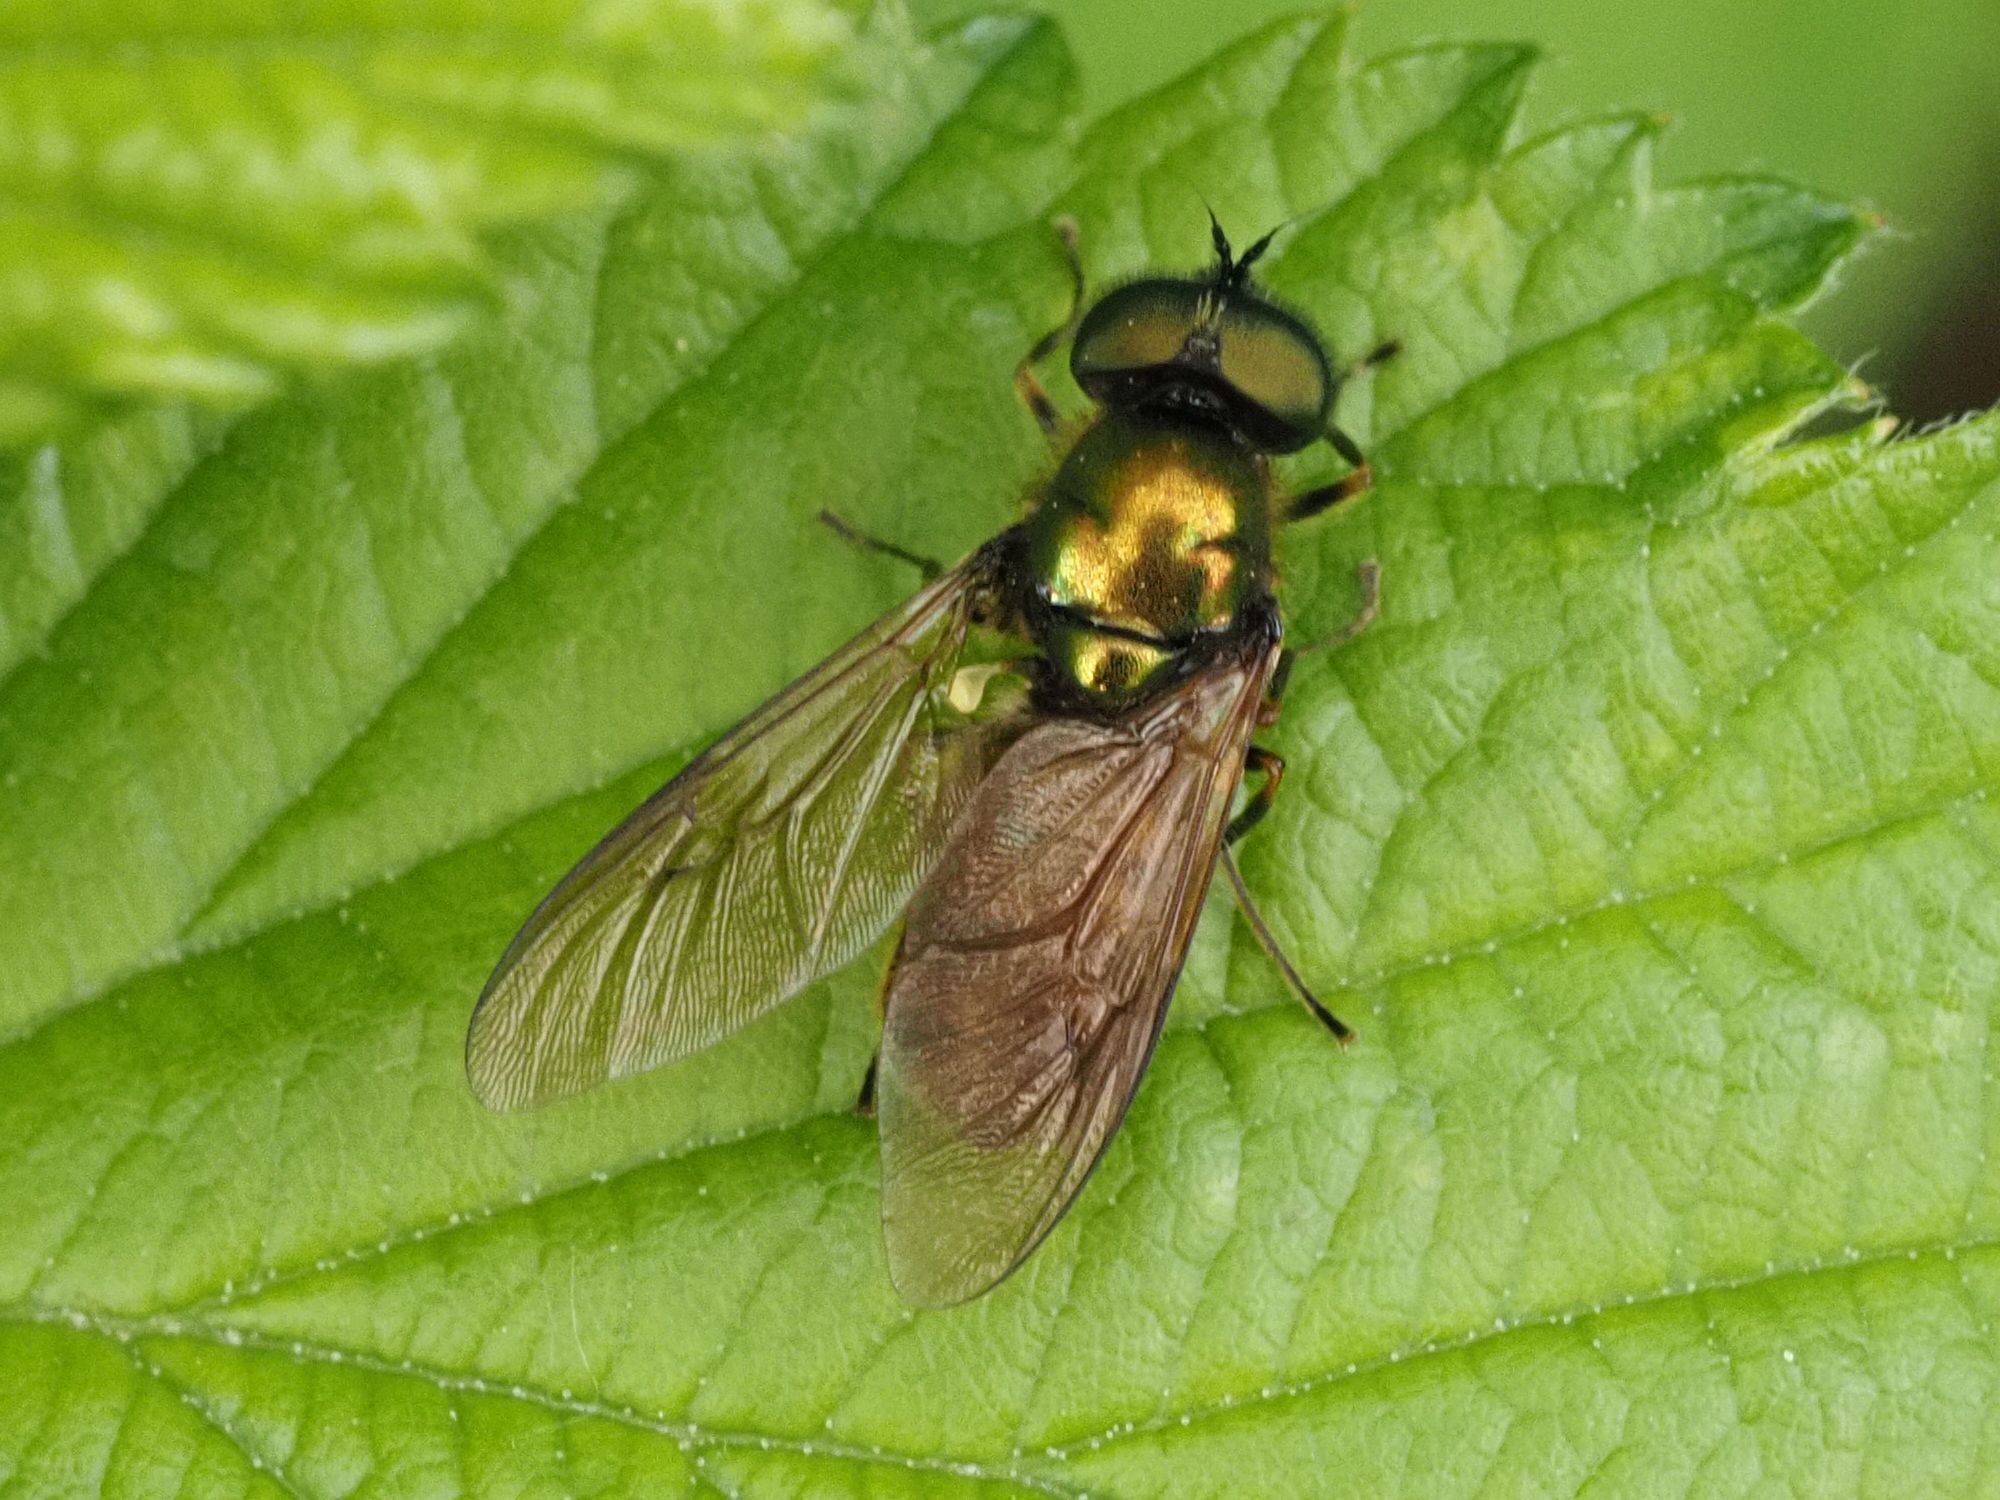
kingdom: Animalia
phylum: Arthropoda
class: Insecta
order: Diptera
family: Stratiomyidae
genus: Chloromyia
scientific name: Chloromyia formosa
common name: Soldier fly
